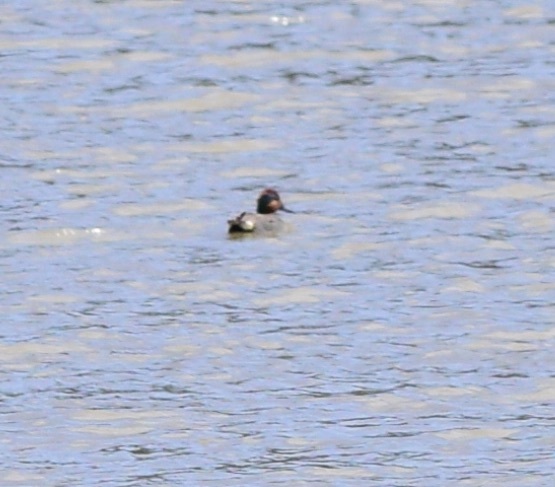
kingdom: Animalia
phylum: Chordata
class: Aves
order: Anseriformes
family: Anatidae
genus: Anas
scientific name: Anas crecca
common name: Eurasian teal
